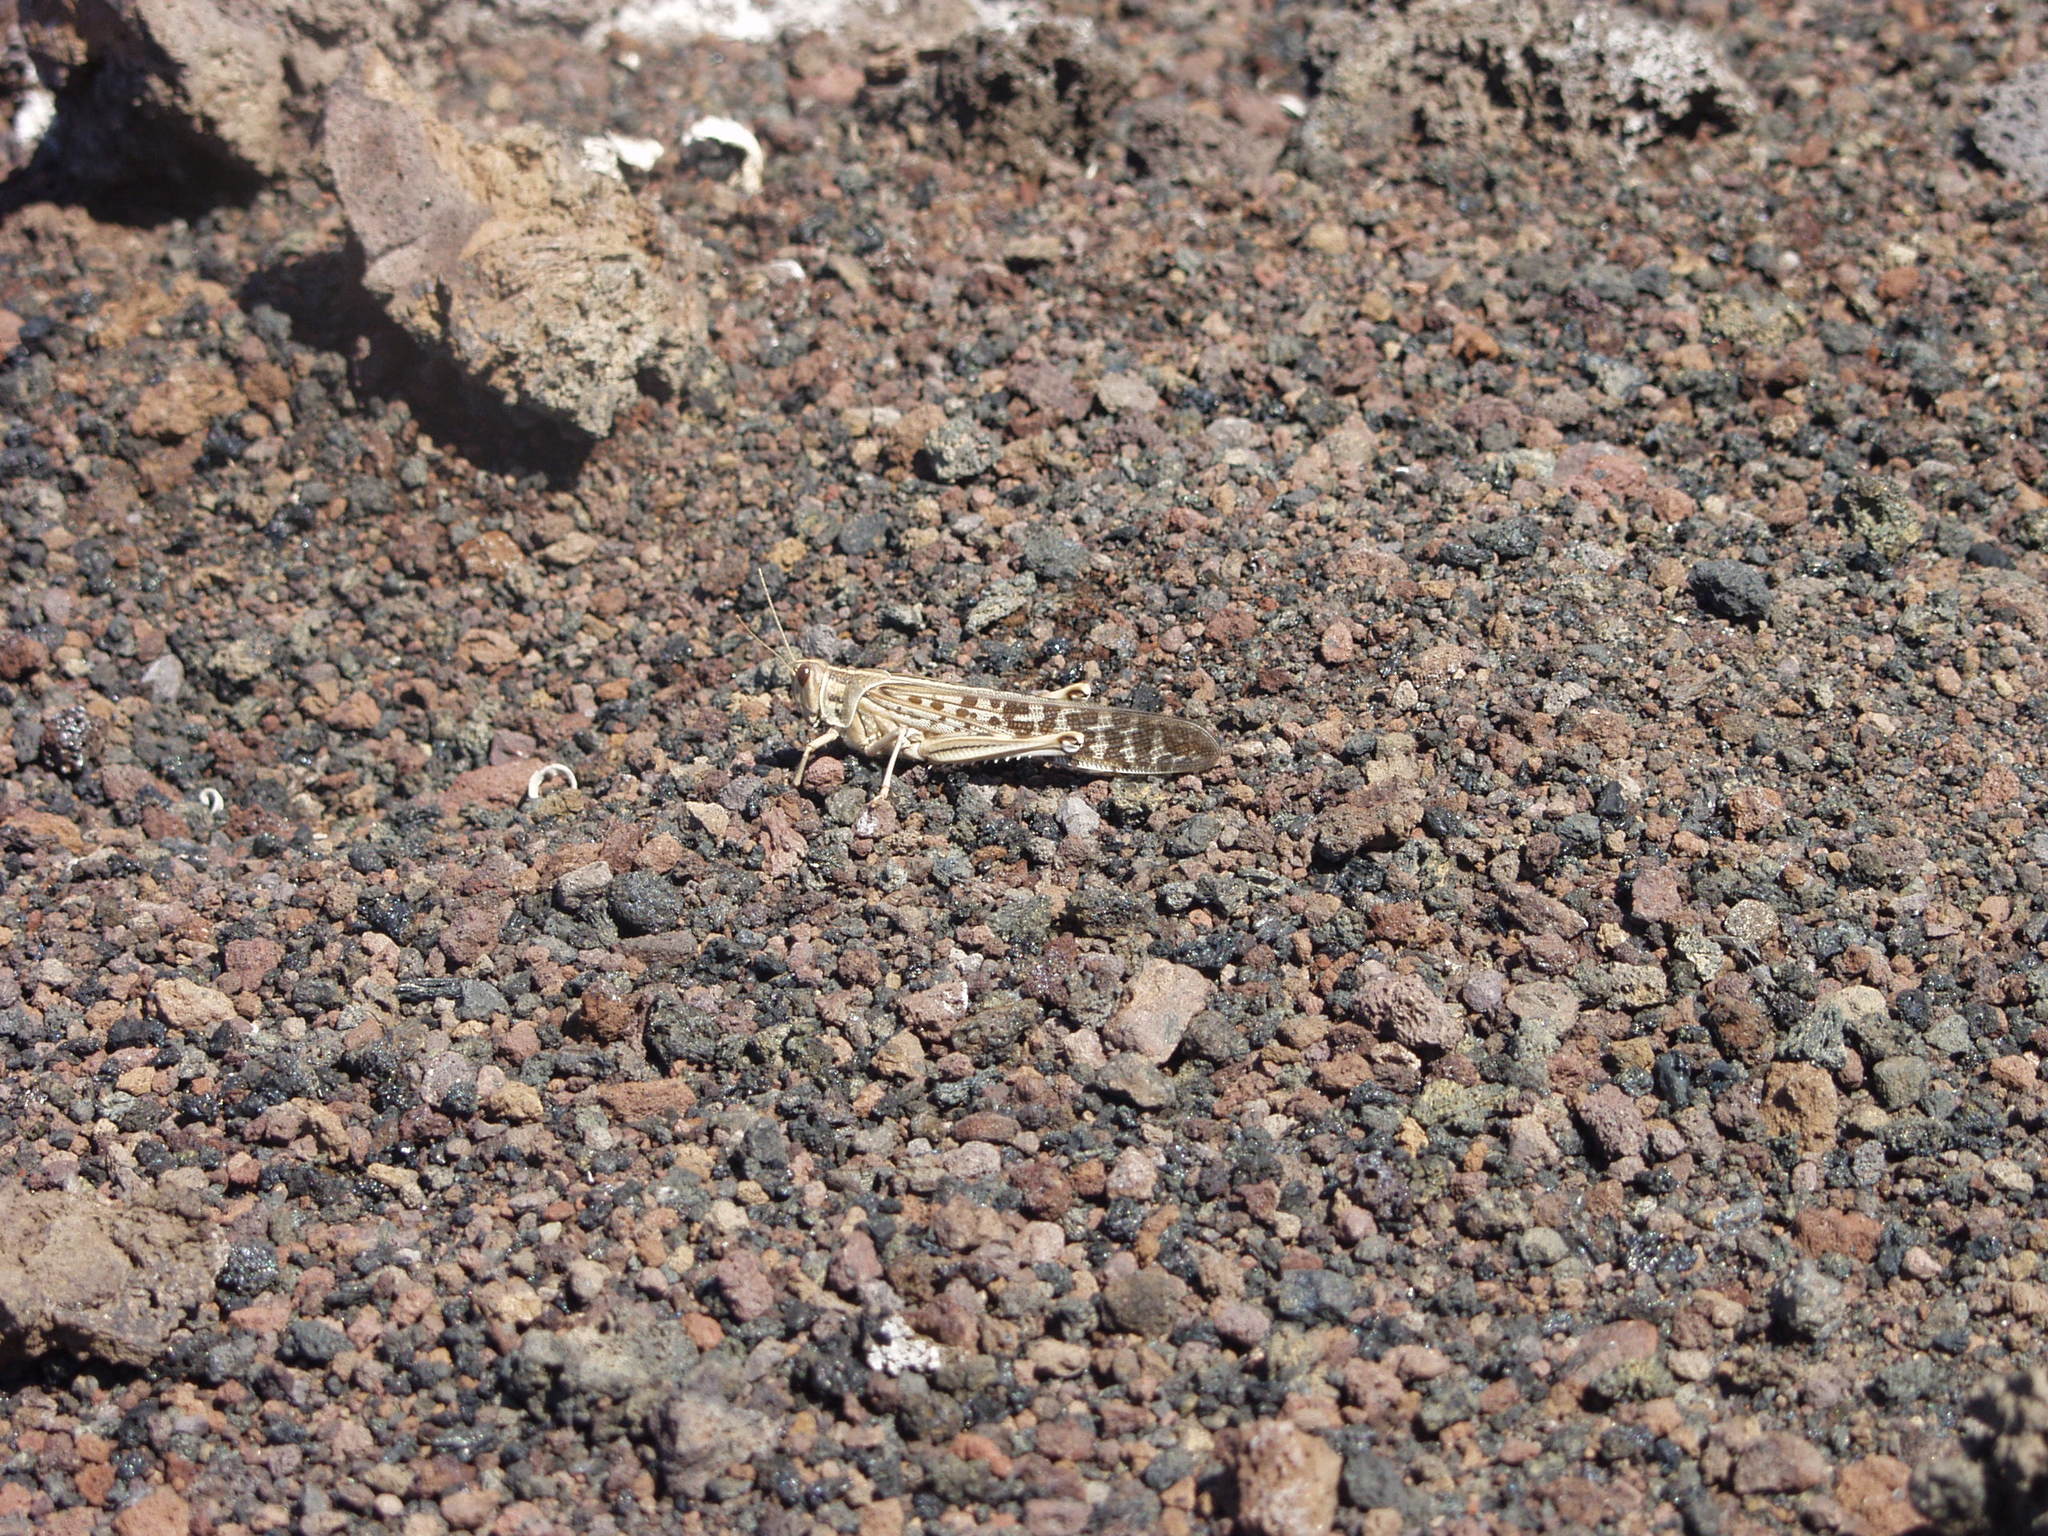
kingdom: Animalia
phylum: Arthropoda
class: Insecta
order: Orthoptera
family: Acrididae
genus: Schistocerca
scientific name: Schistocerca gregaria
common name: Desert locust
